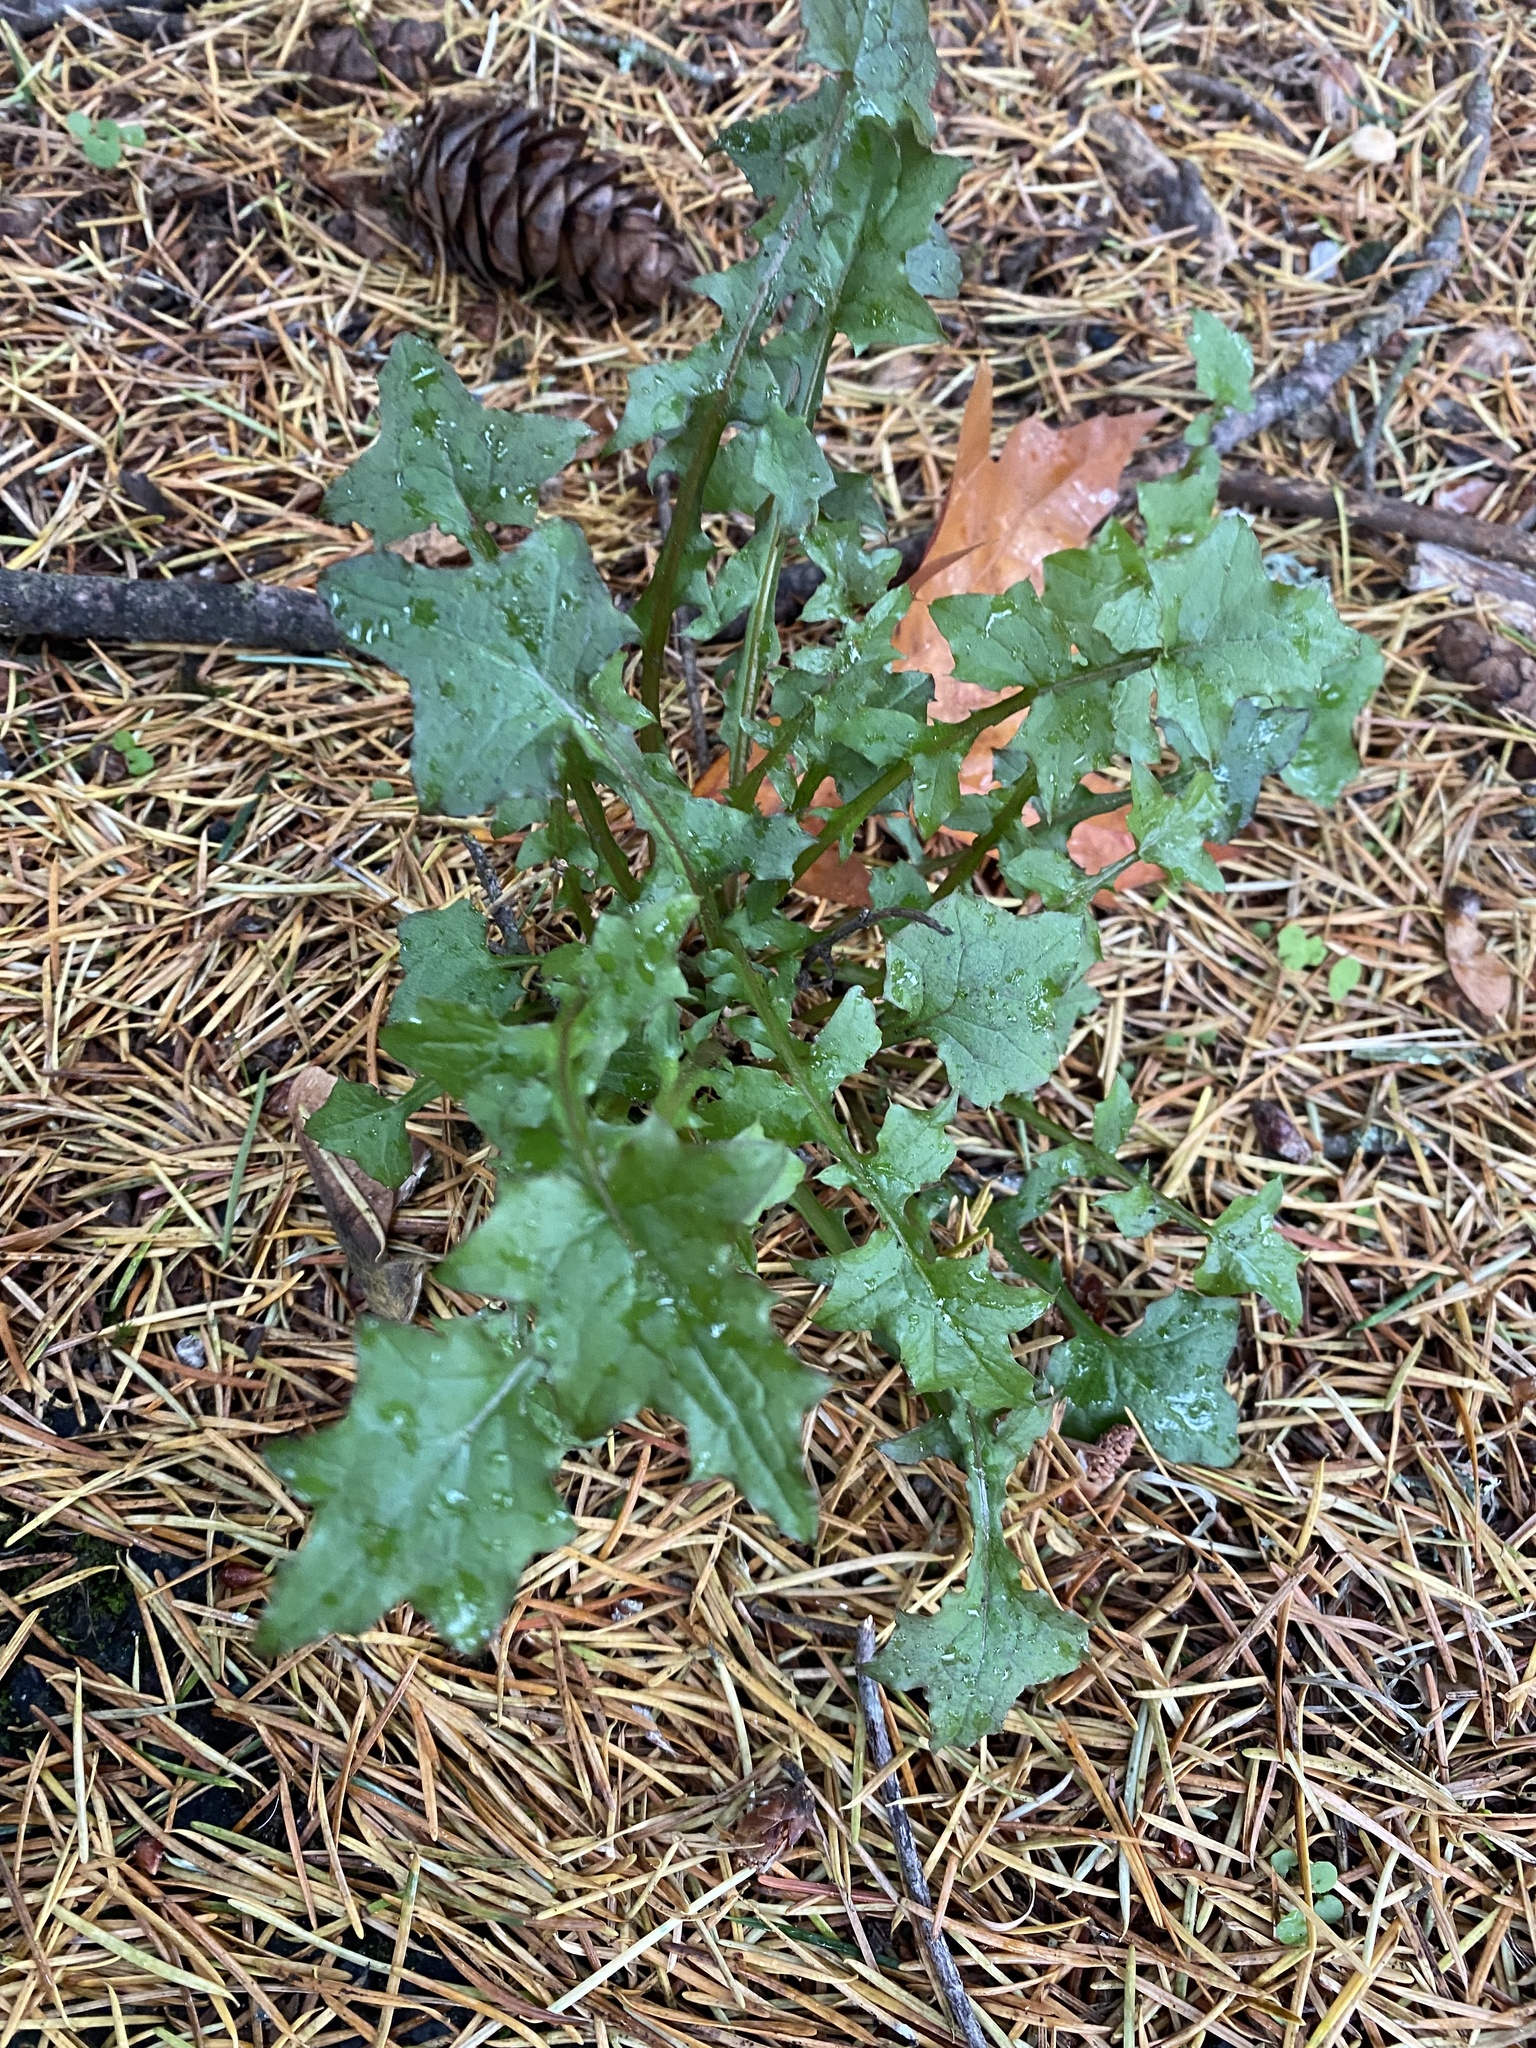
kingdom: Plantae
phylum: Tracheophyta
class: Magnoliopsida
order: Asterales
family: Asteraceae
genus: Mycelis
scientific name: Mycelis muralis
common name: Wall lettuce
